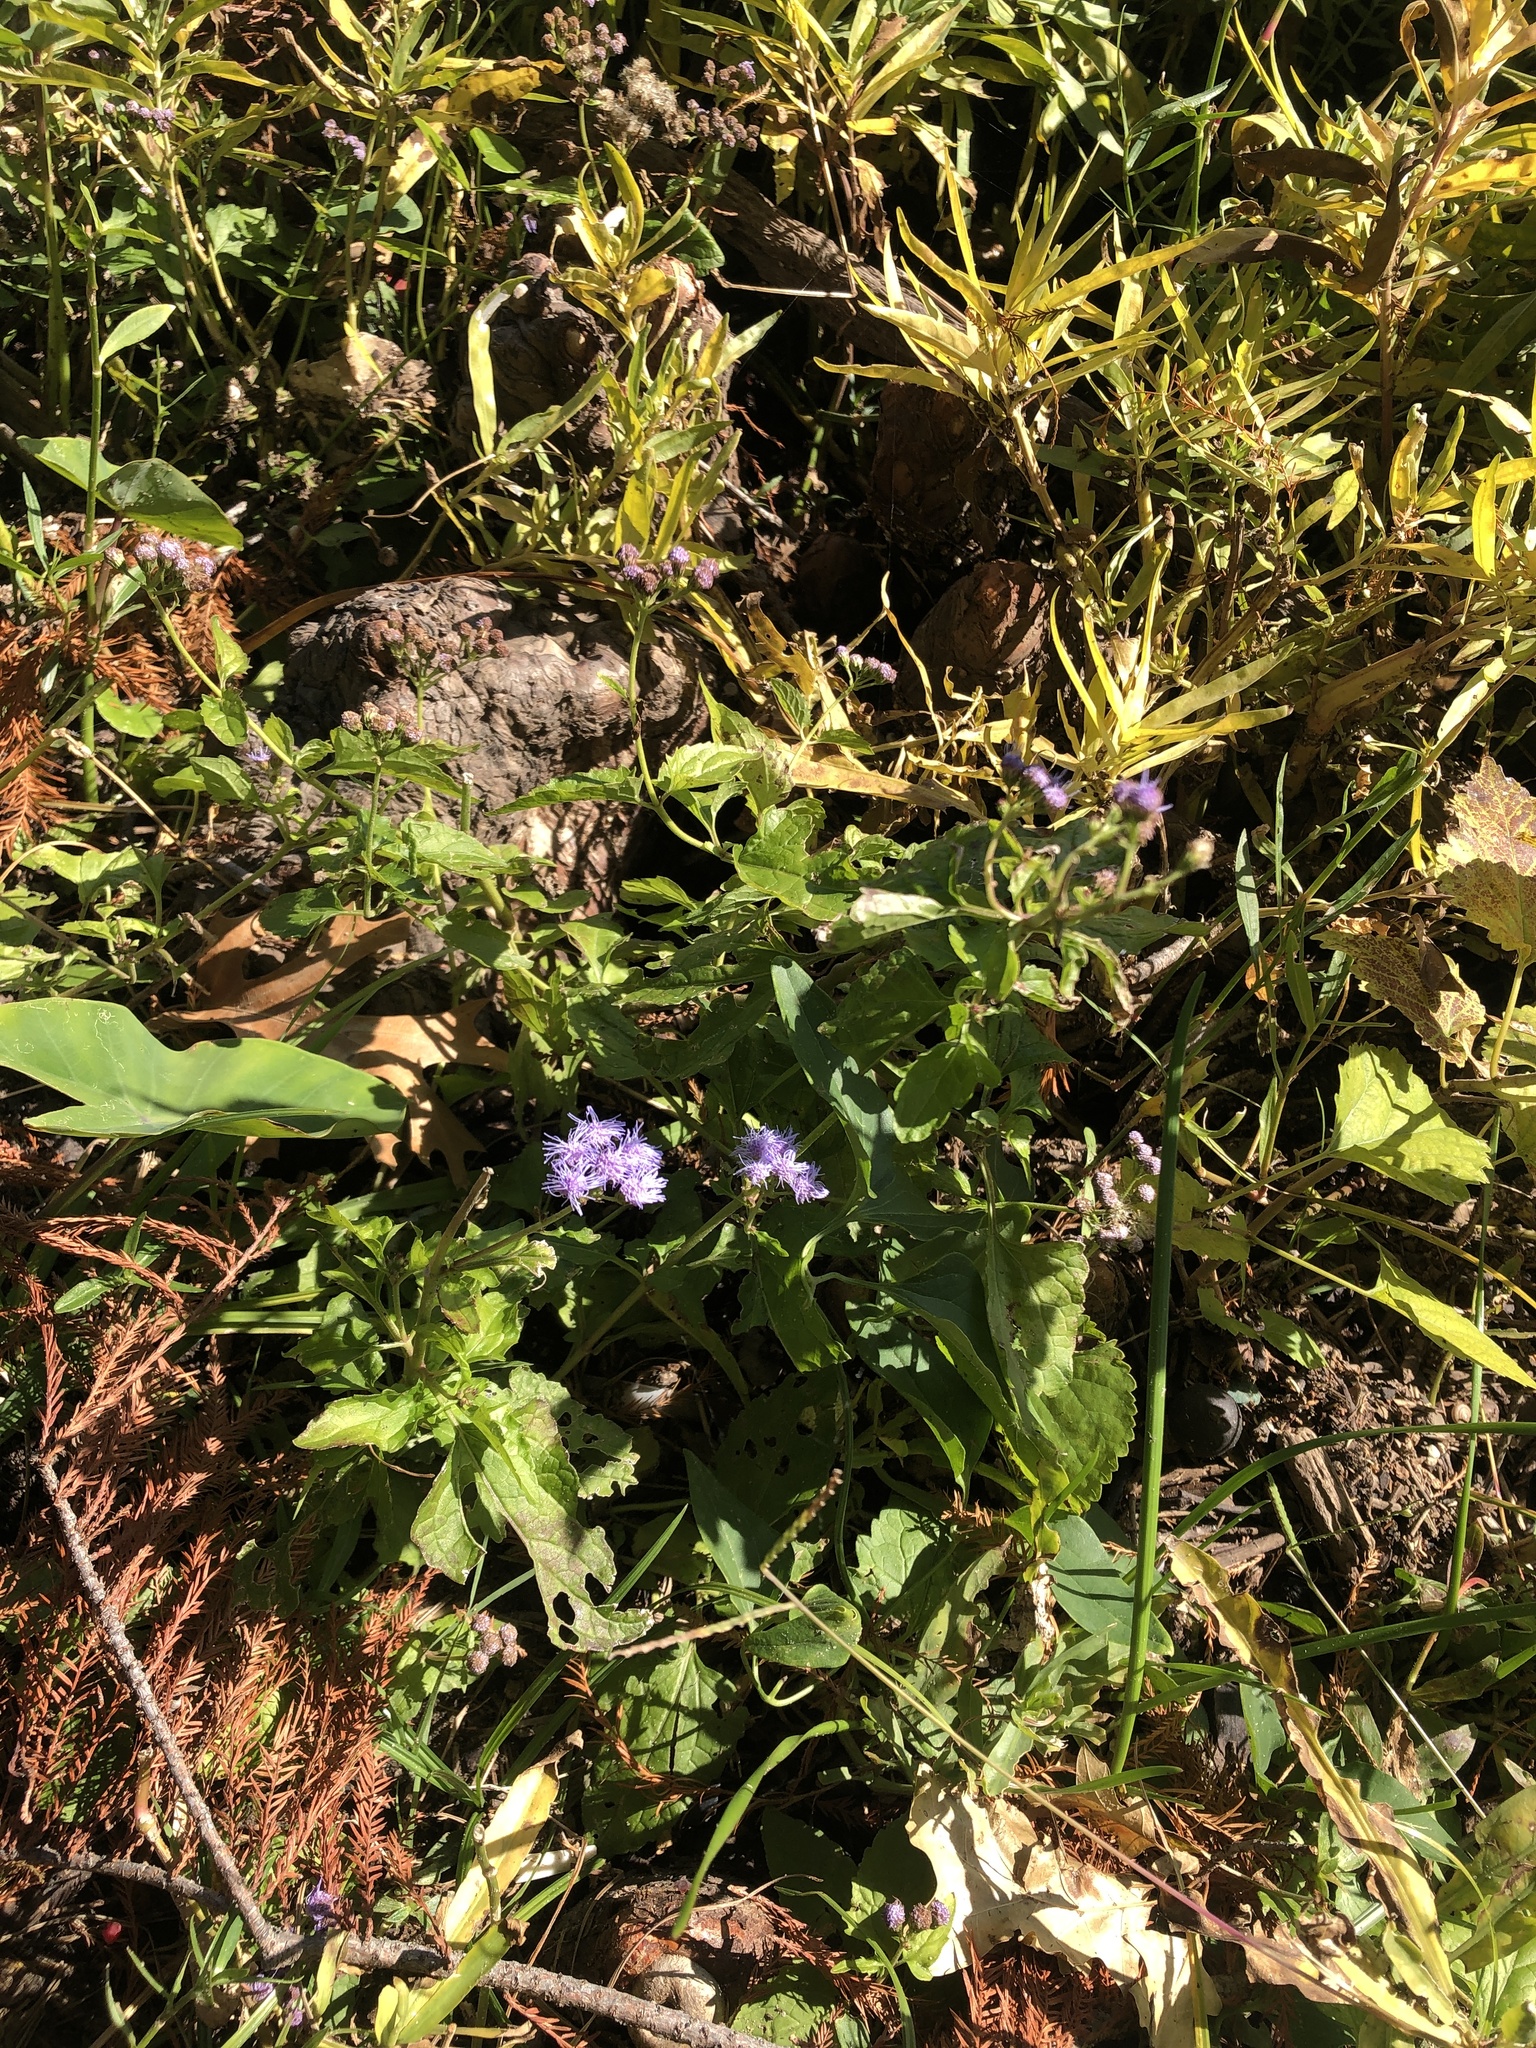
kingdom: Plantae
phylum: Tracheophyta
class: Magnoliopsida
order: Asterales
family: Asteraceae
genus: Conoclinium
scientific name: Conoclinium coelestinum
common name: Blue mistflower
